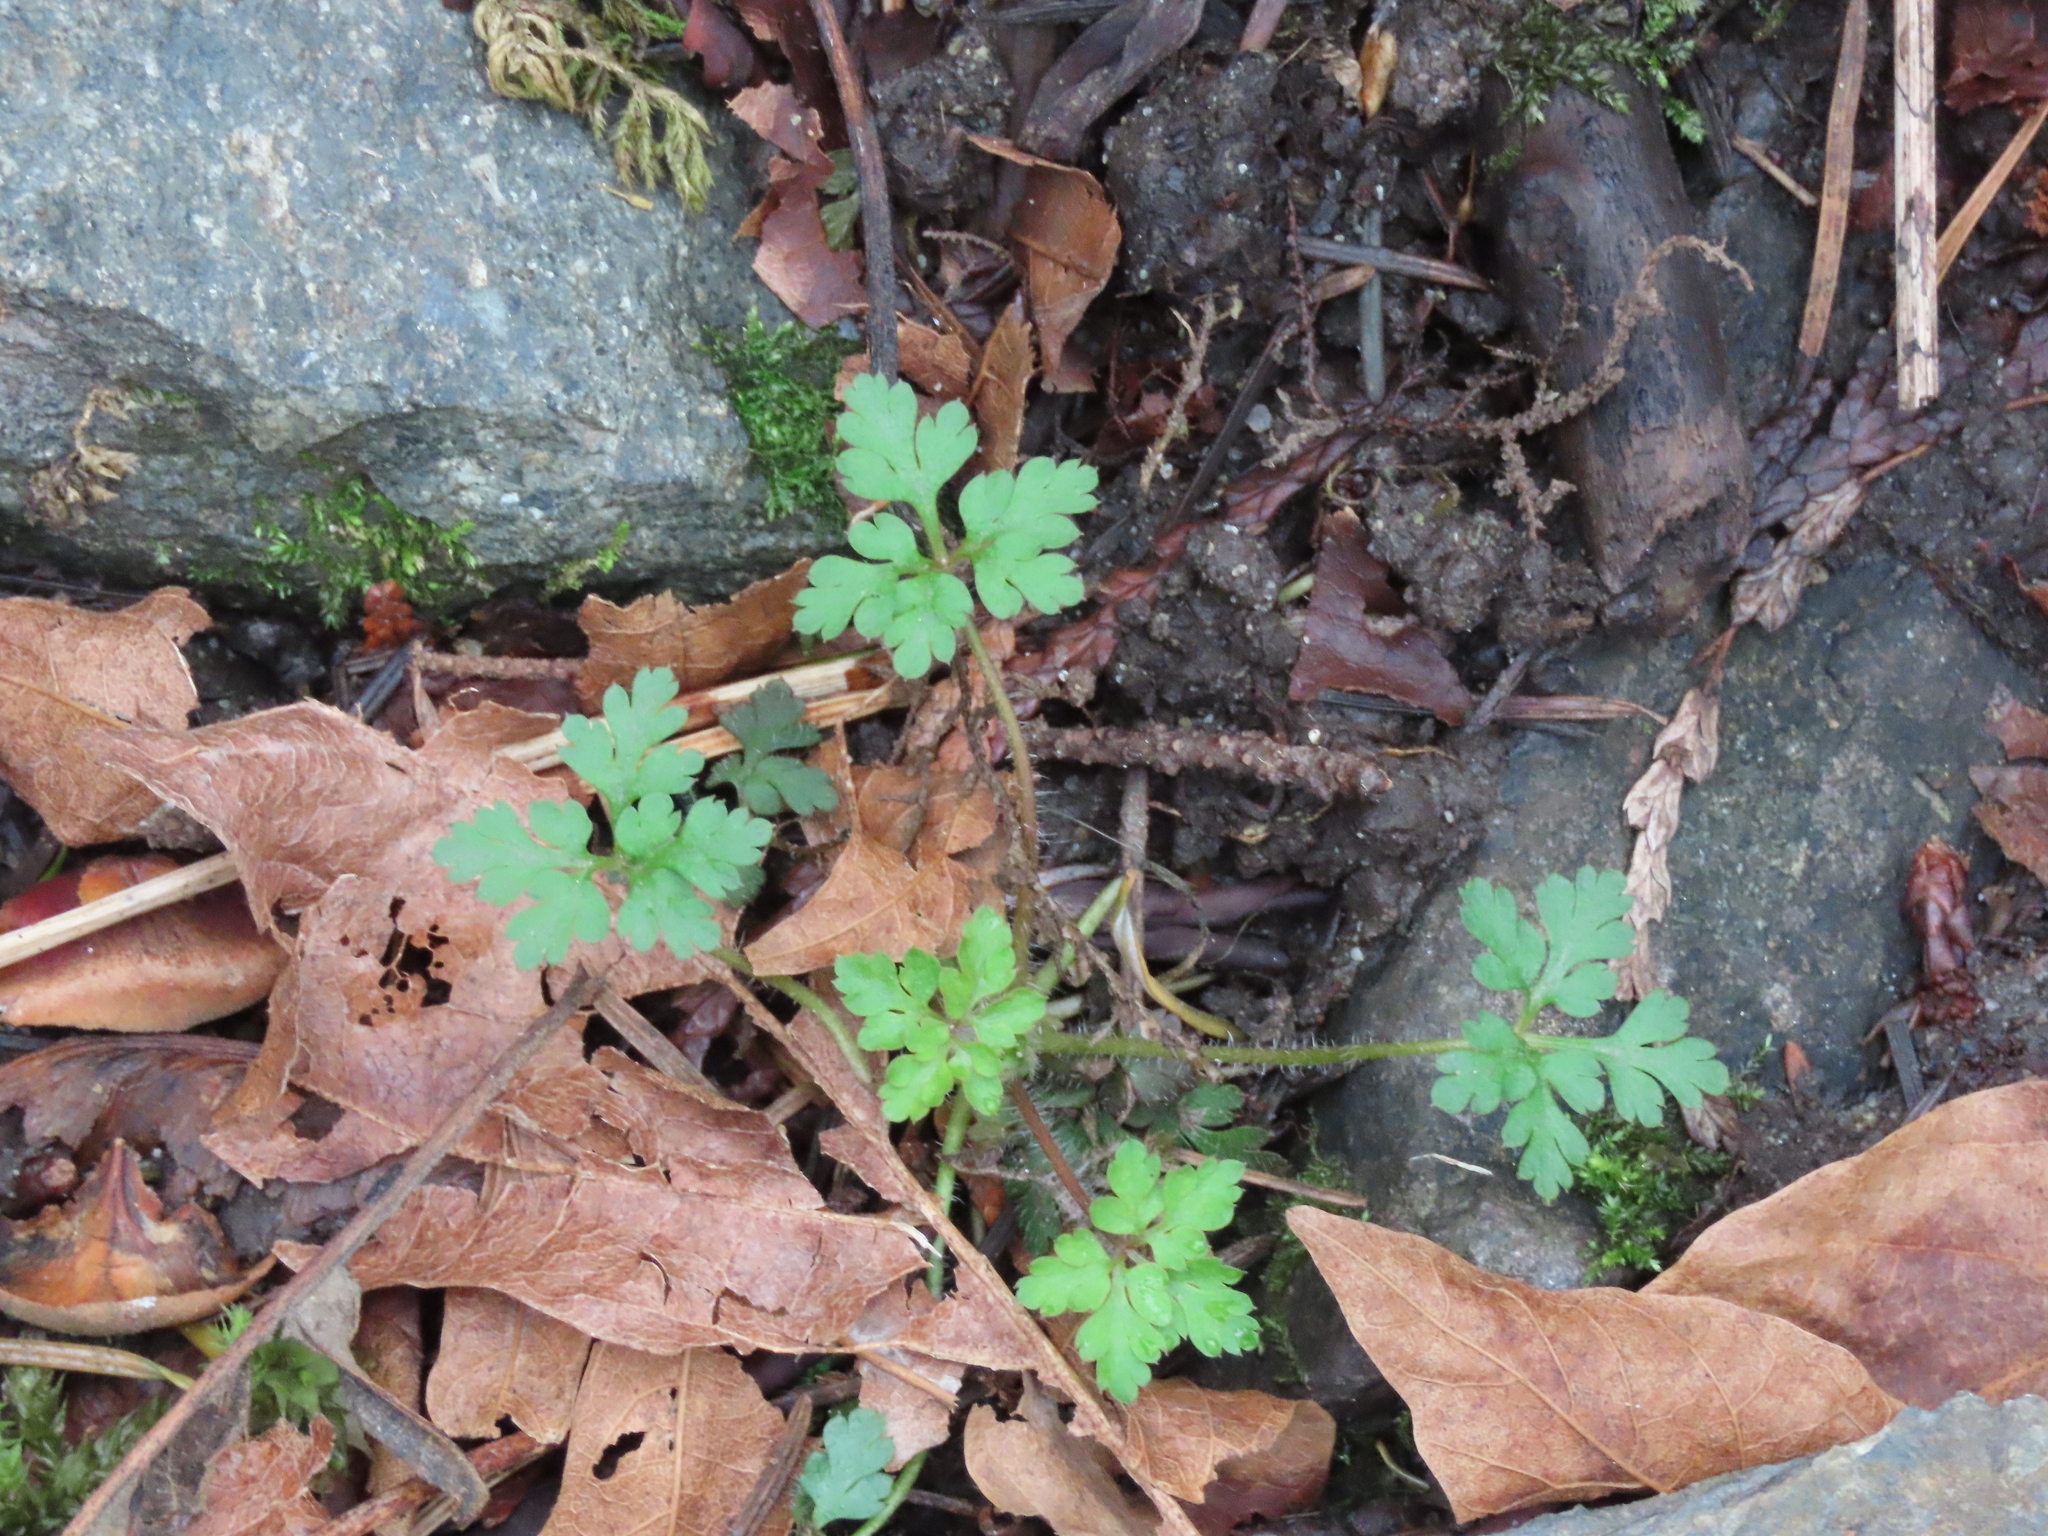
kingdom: Plantae
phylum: Tracheophyta
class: Magnoliopsida
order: Geraniales
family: Geraniaceae
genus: Geranium
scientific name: Geranium robertianum
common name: Herb-robert
